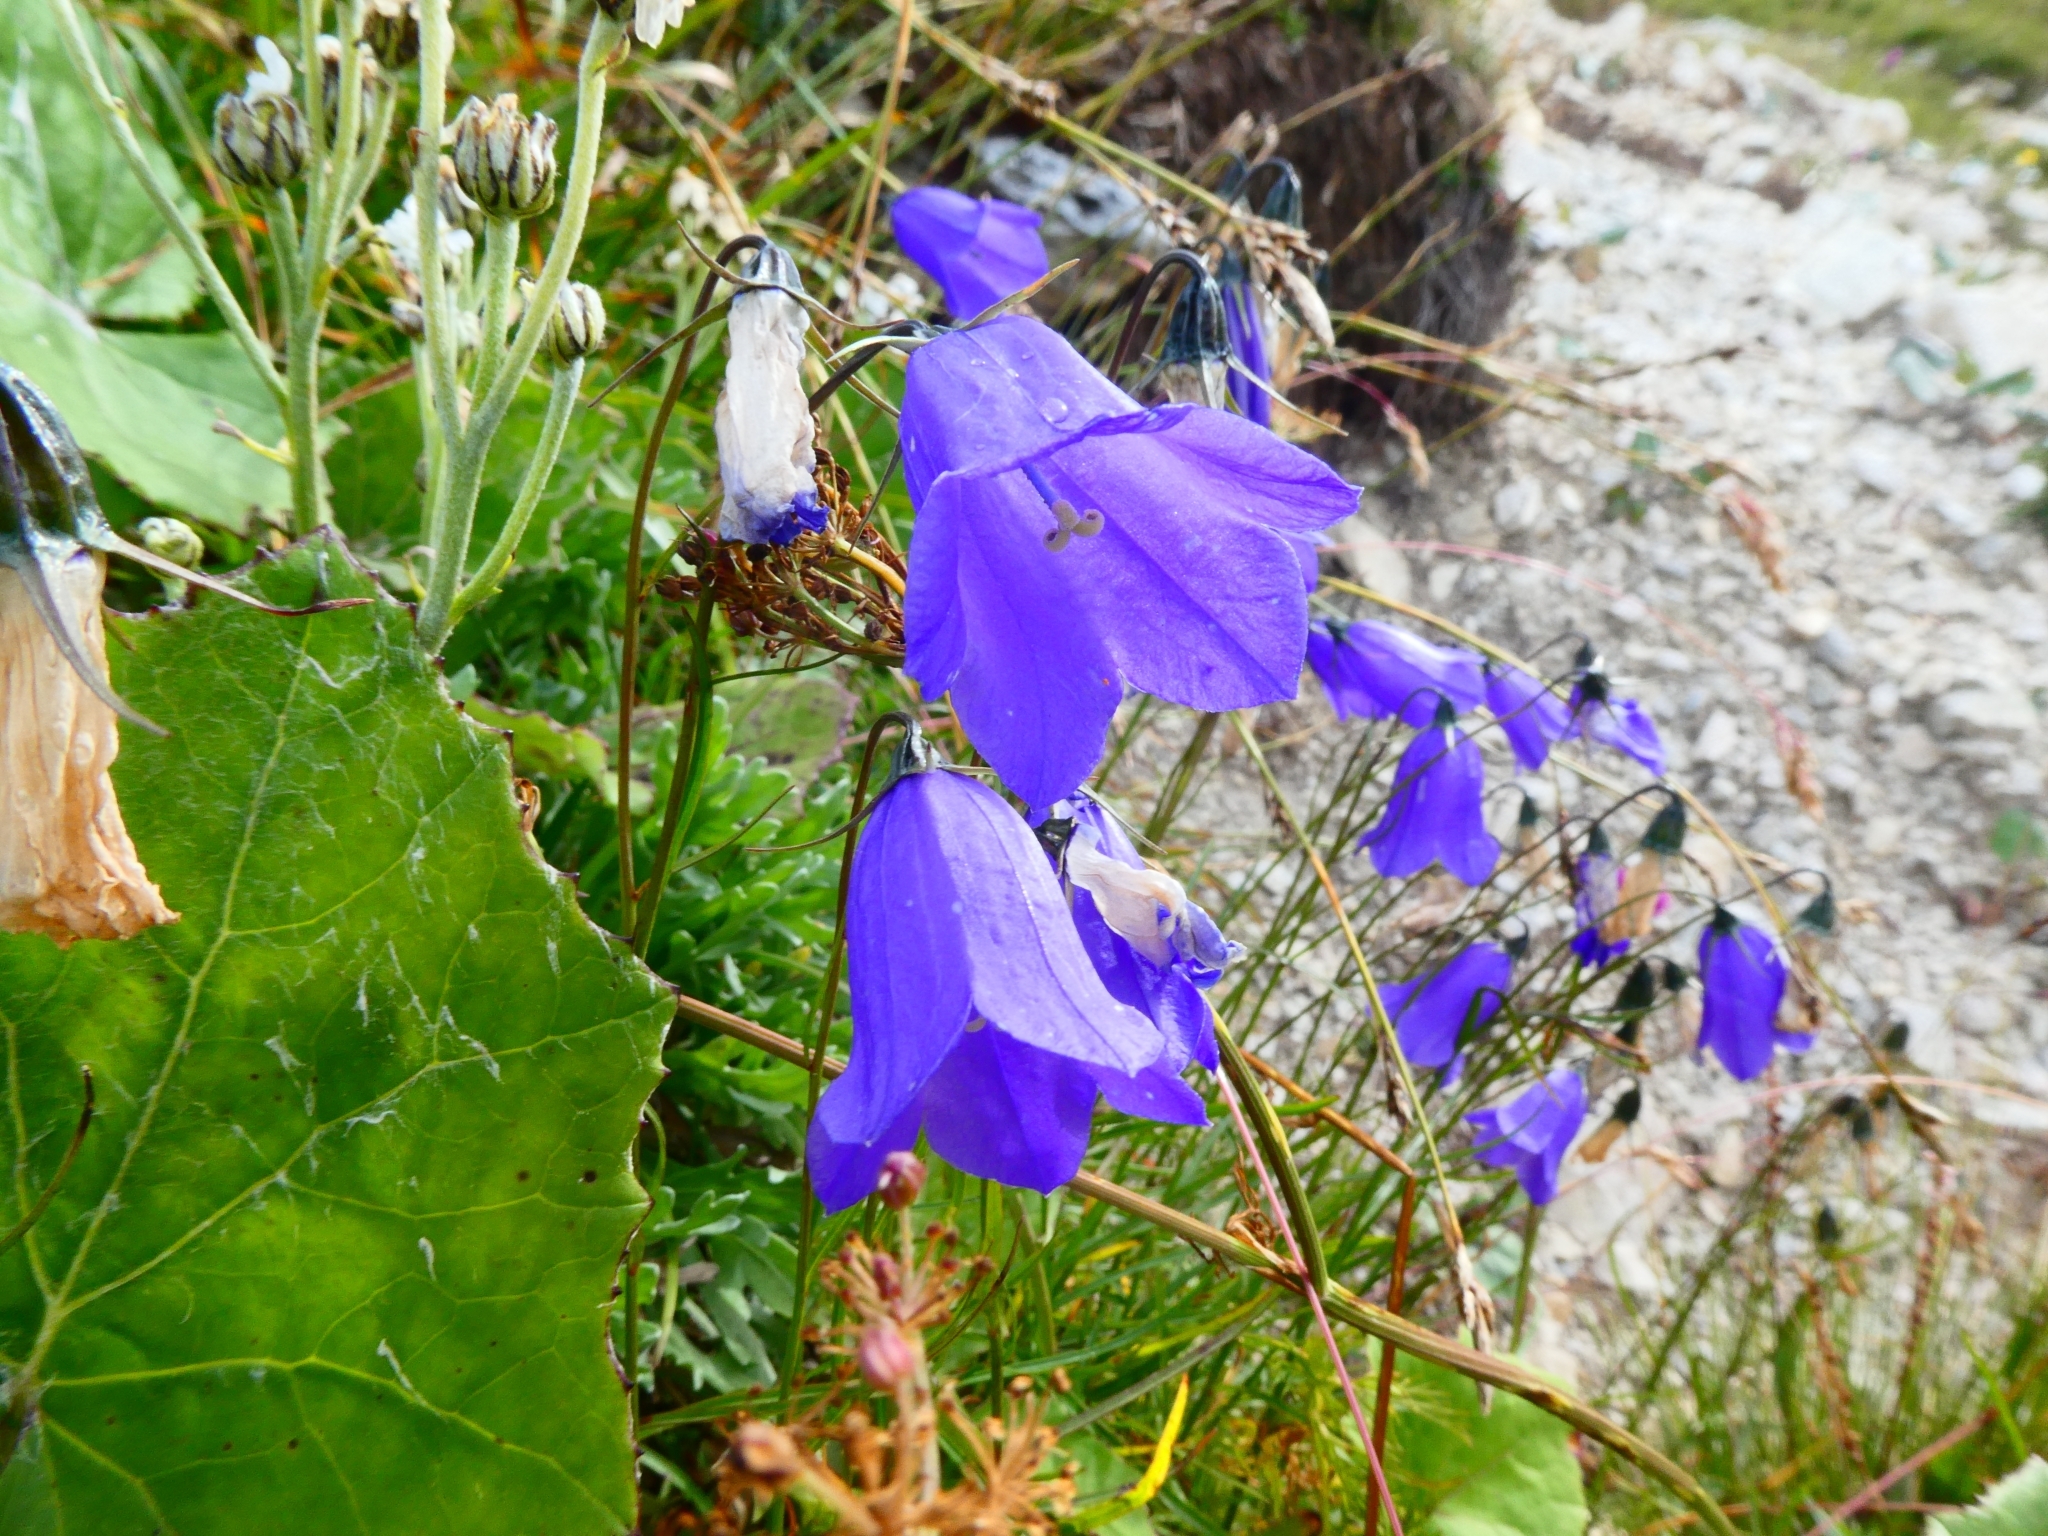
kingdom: Plantae
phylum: Tracheophyta
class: Magnoliopsida
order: Asterales
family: Campanulaceae
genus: Campanula
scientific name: Campanula scheuchzeri
